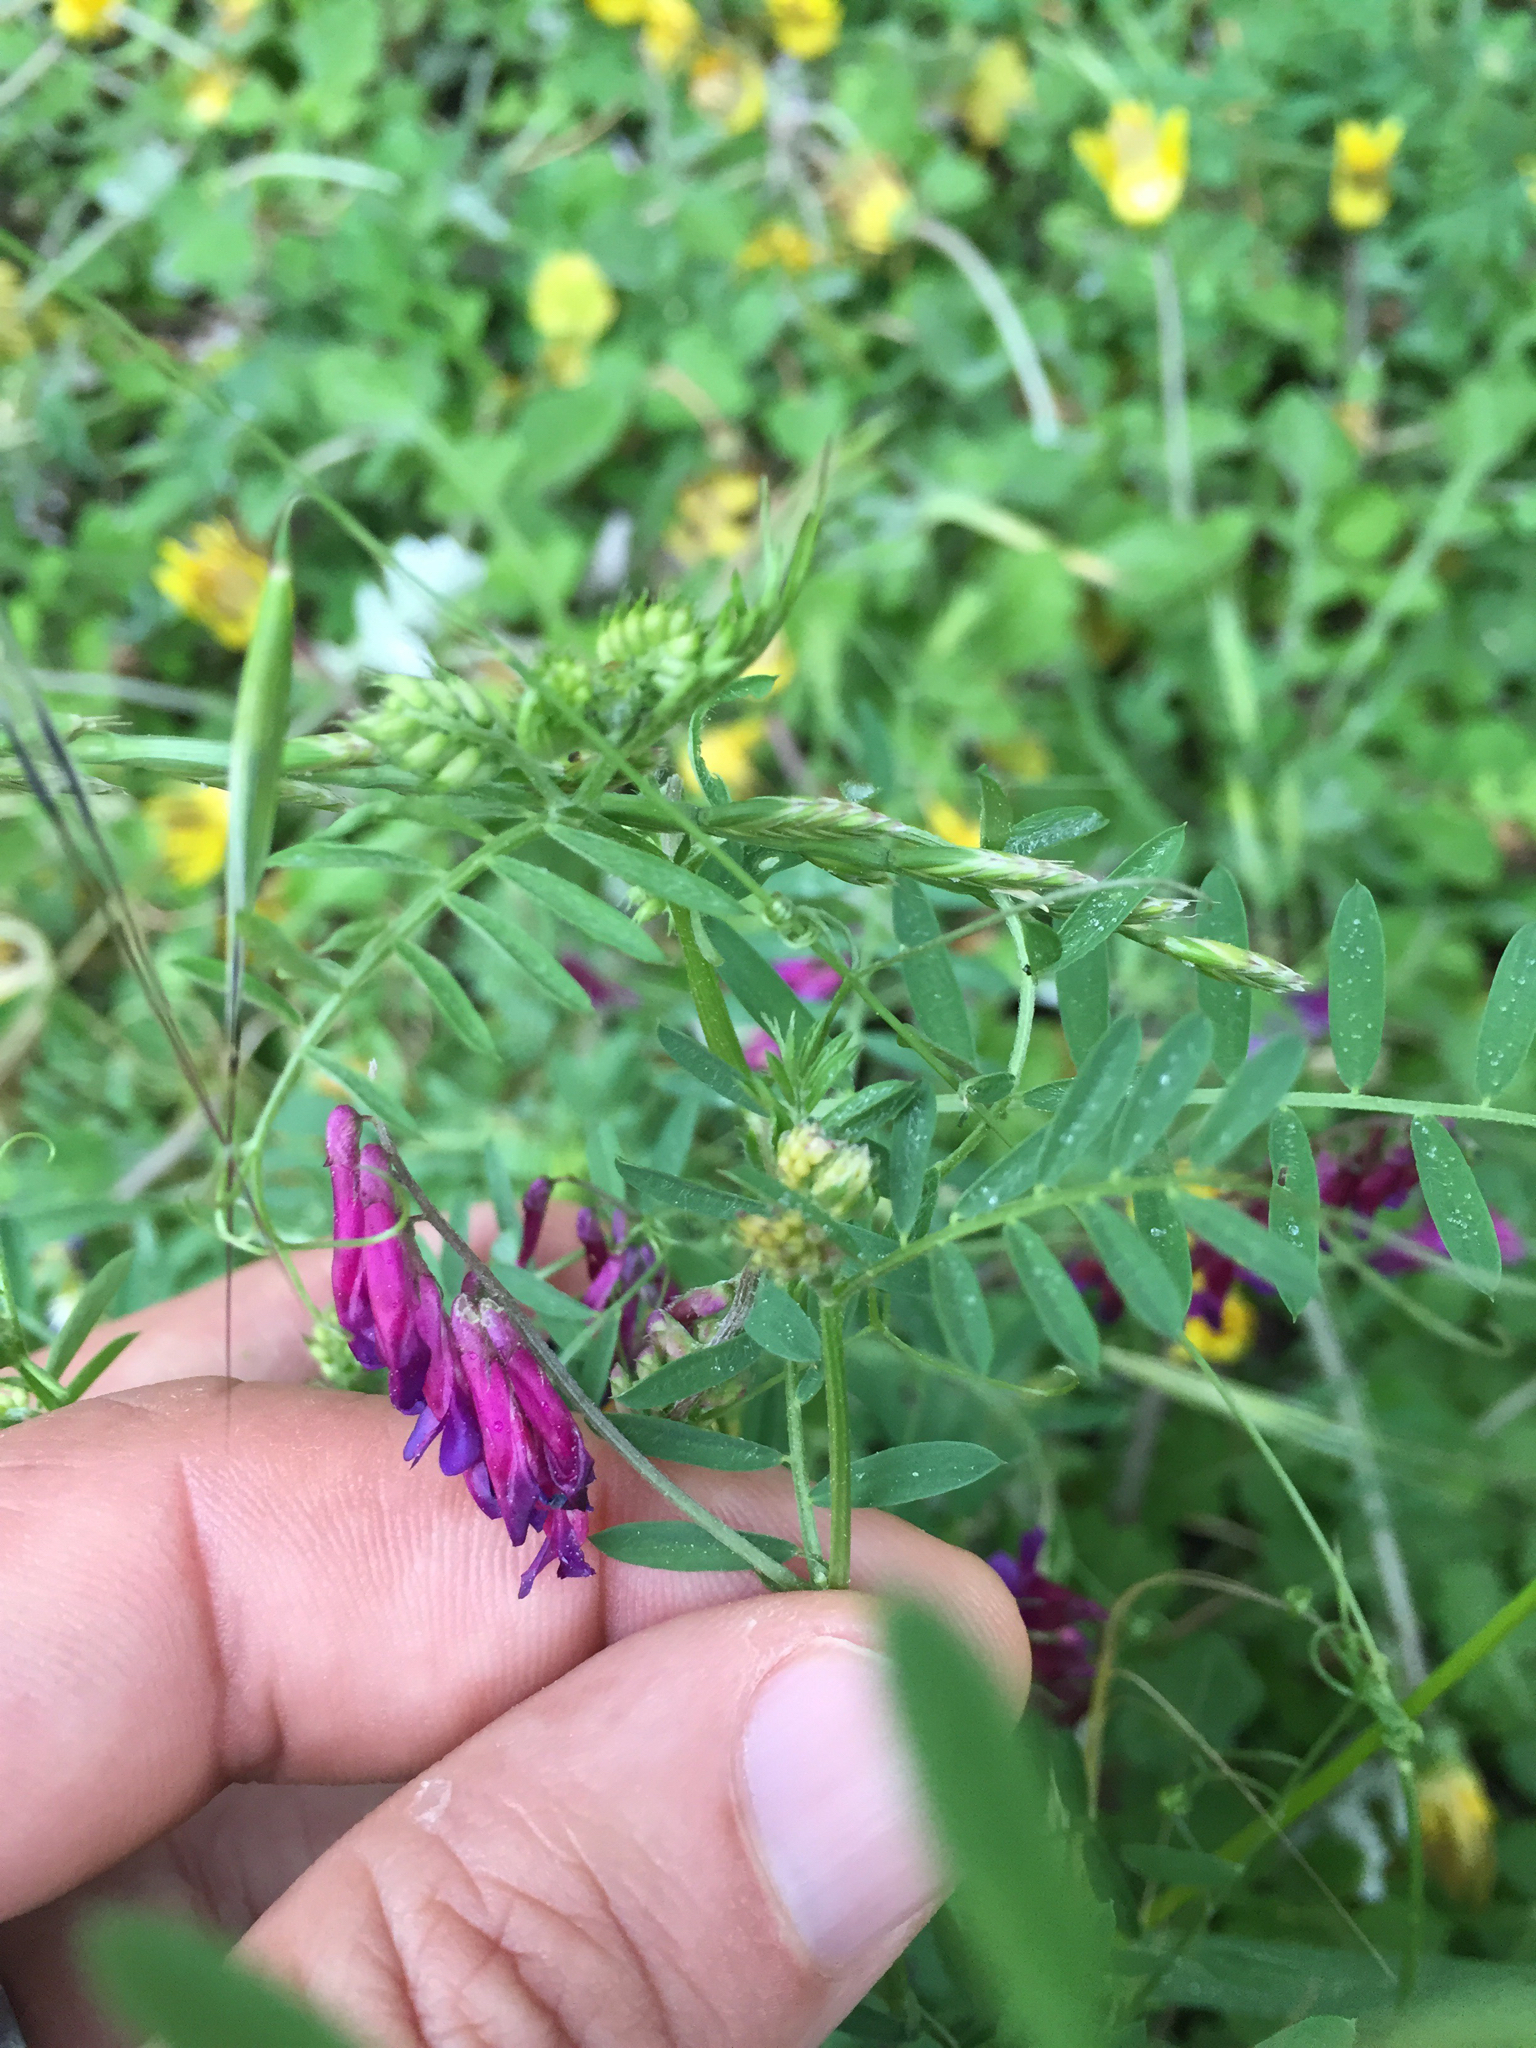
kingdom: Plantae
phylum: Tracheophyta
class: Magnoliopsida
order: Fabales
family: Fabaceae
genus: Vicia
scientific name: Vicia villosa
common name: Fodder vetch
